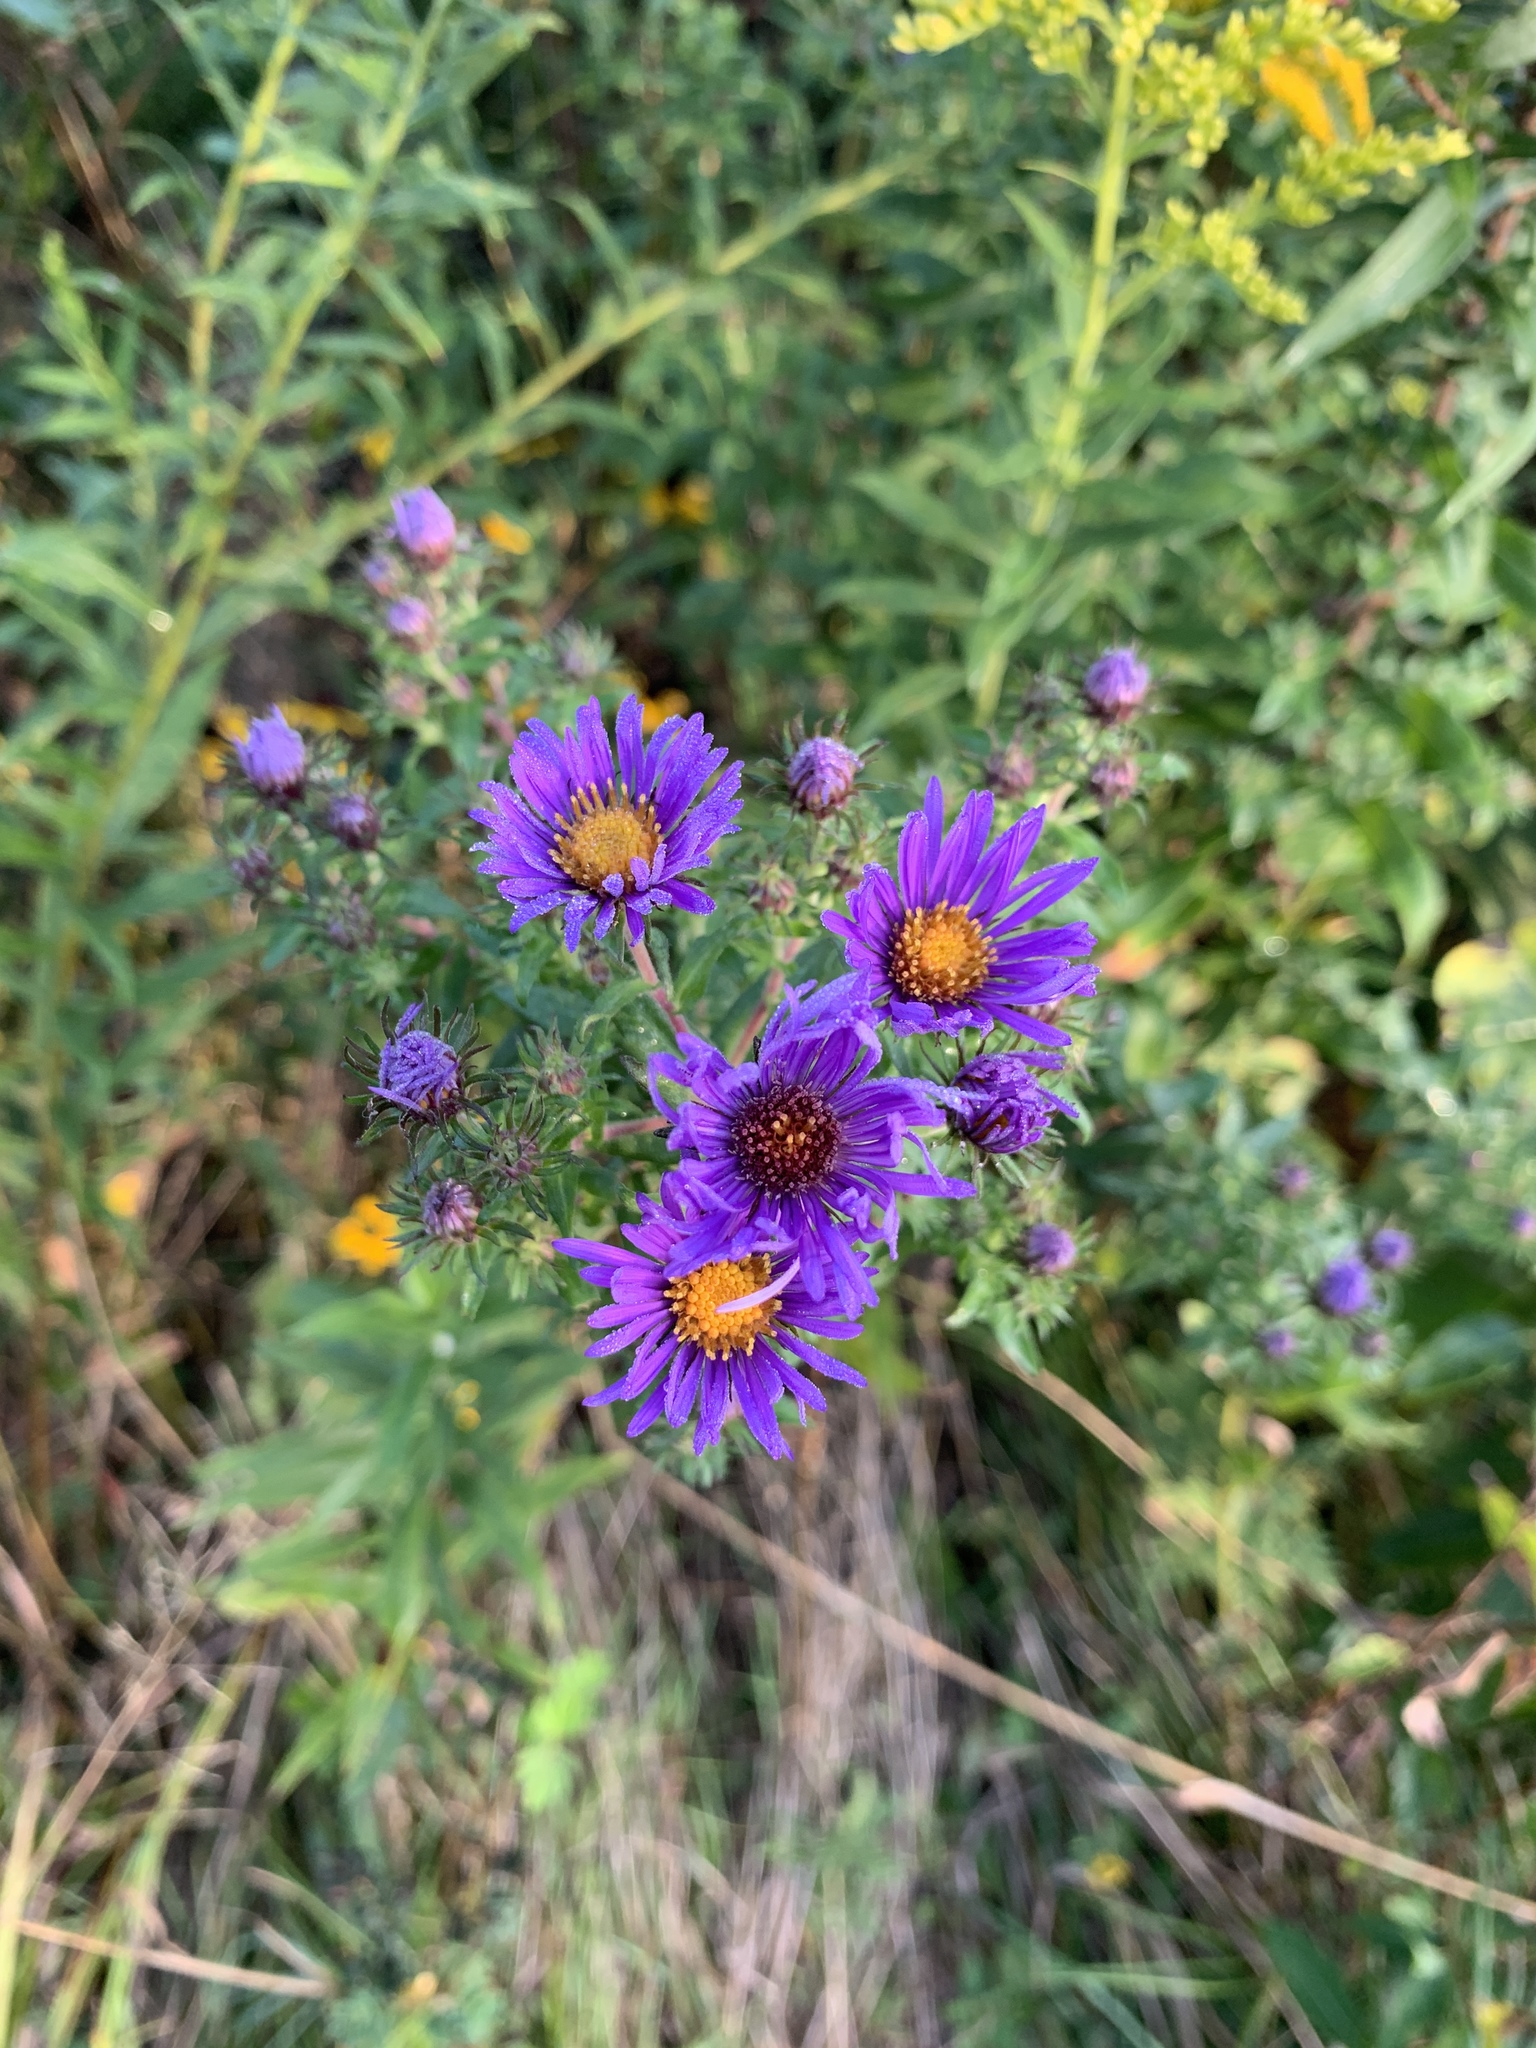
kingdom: Plantae
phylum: Tracheophyta
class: Magnoliopsida
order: Asterales
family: Asteraceae
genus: Symphyotrichum
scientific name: Symphyotrichum novae-angliae
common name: Michaelmas daisy
